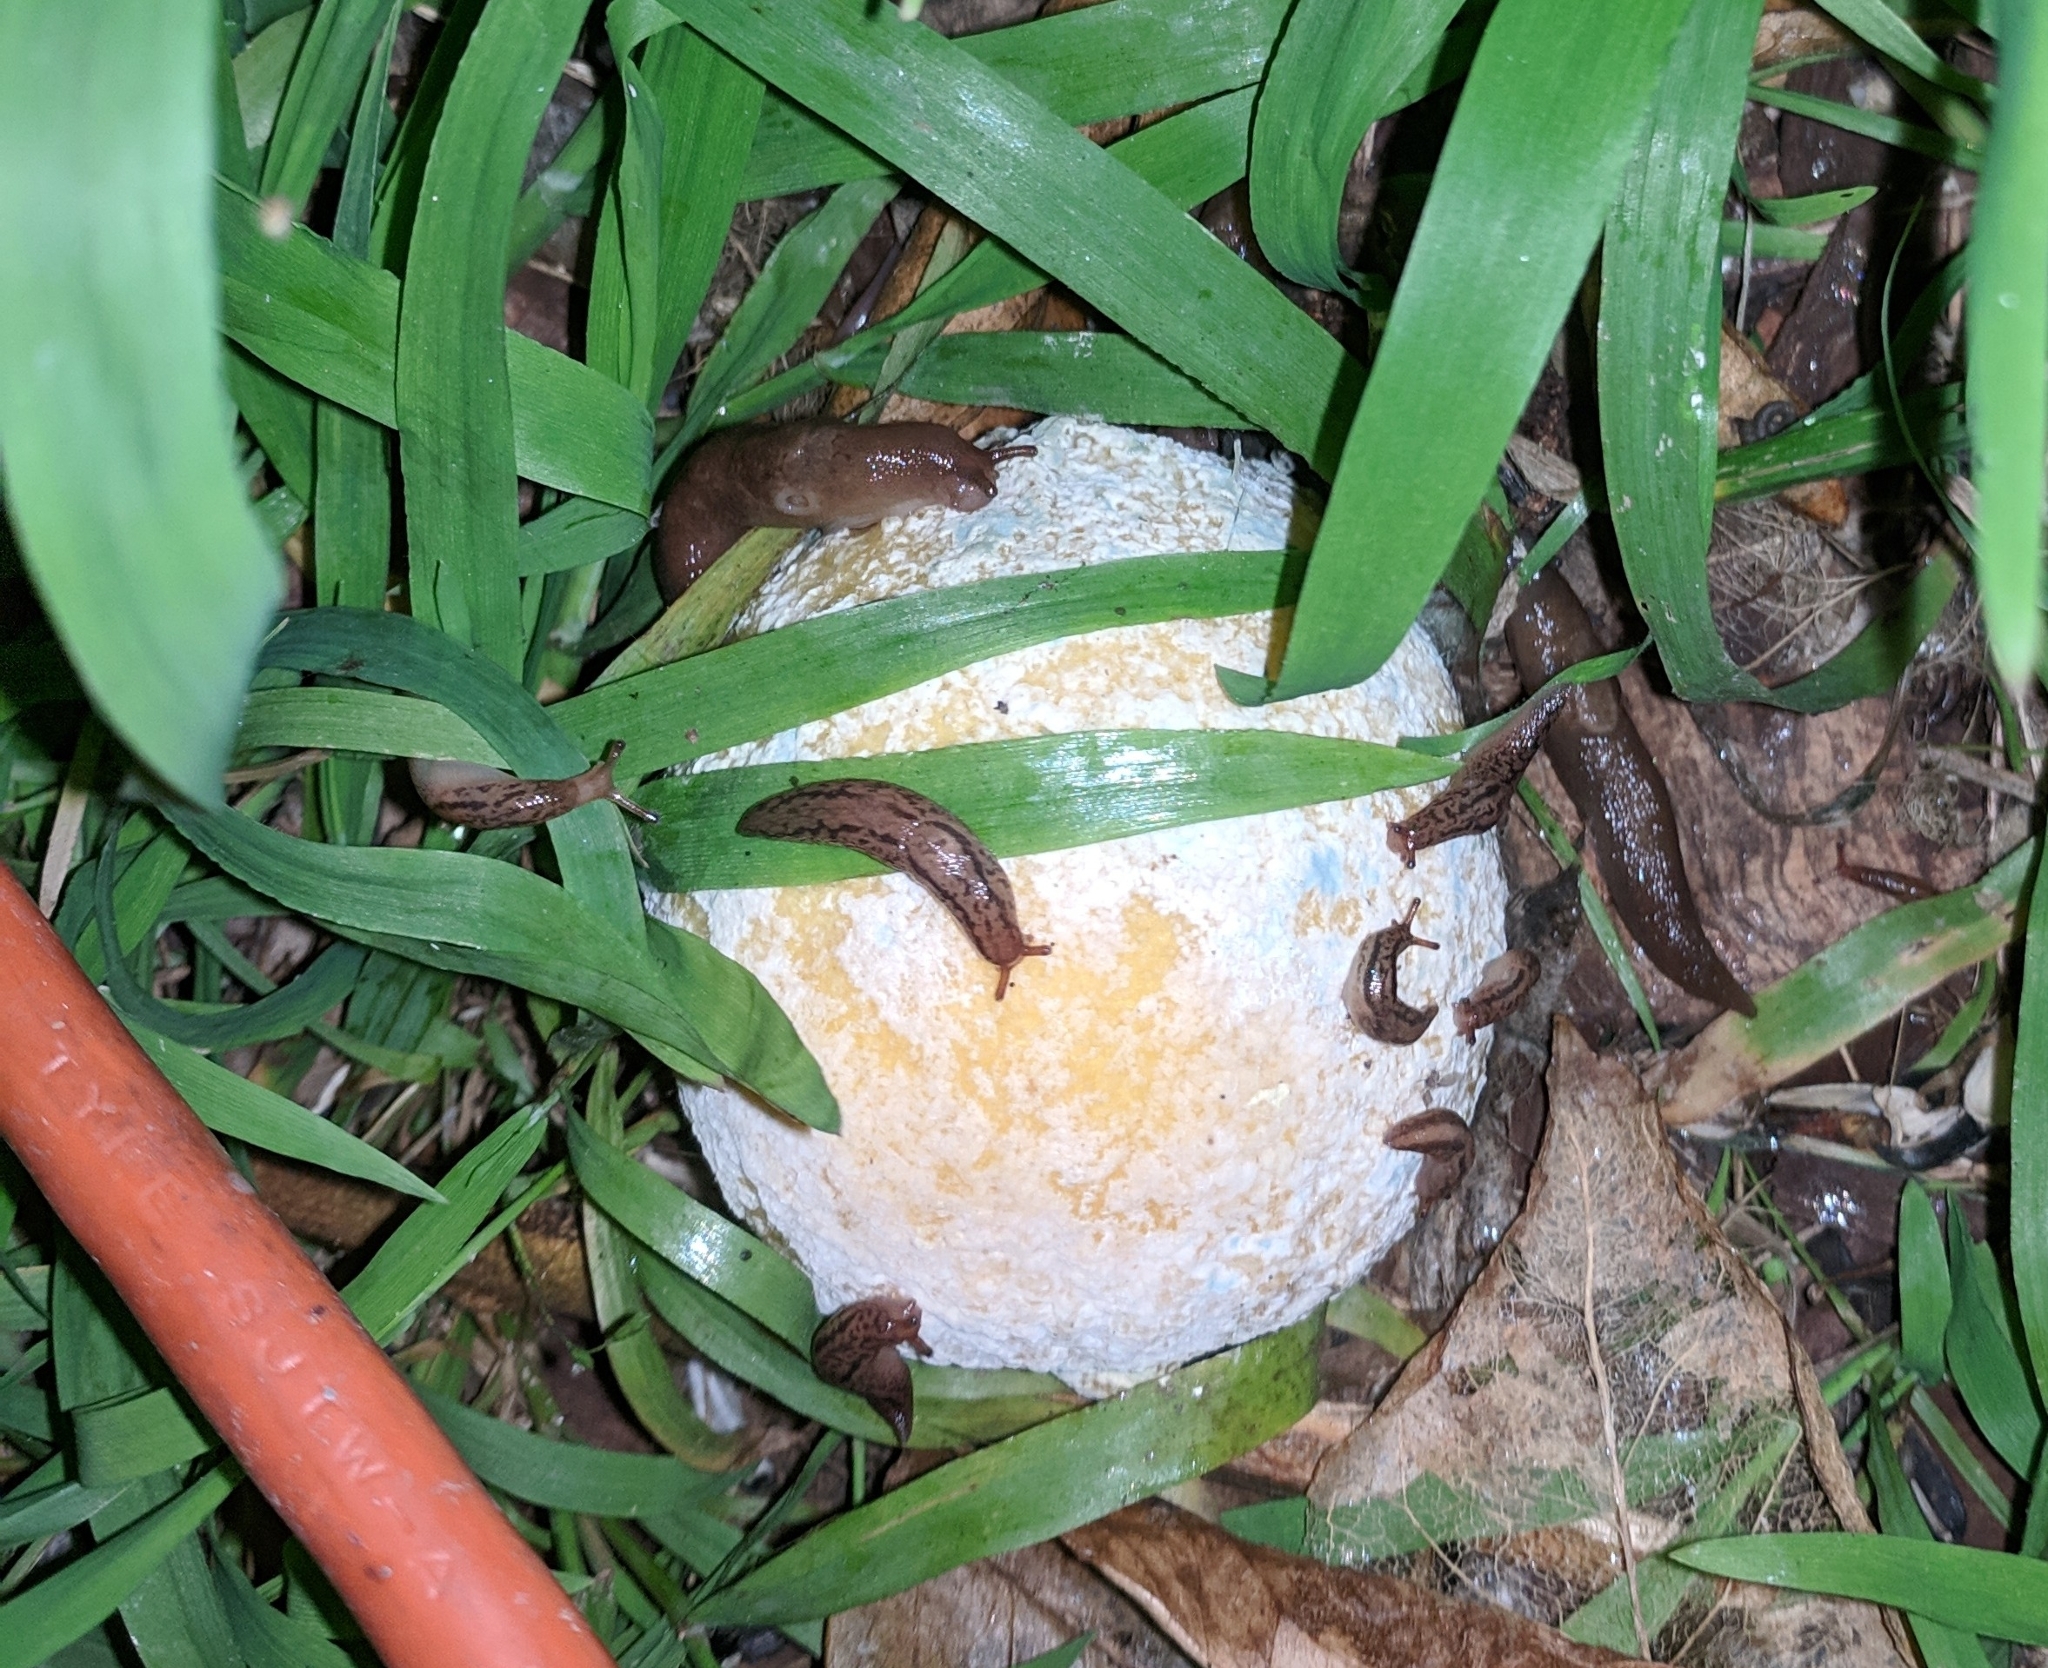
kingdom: Animalia
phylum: Mollusca
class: Gastropoda
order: Stylommatophora
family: Limacidae
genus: Ambigolimax
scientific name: Ambigolimax
